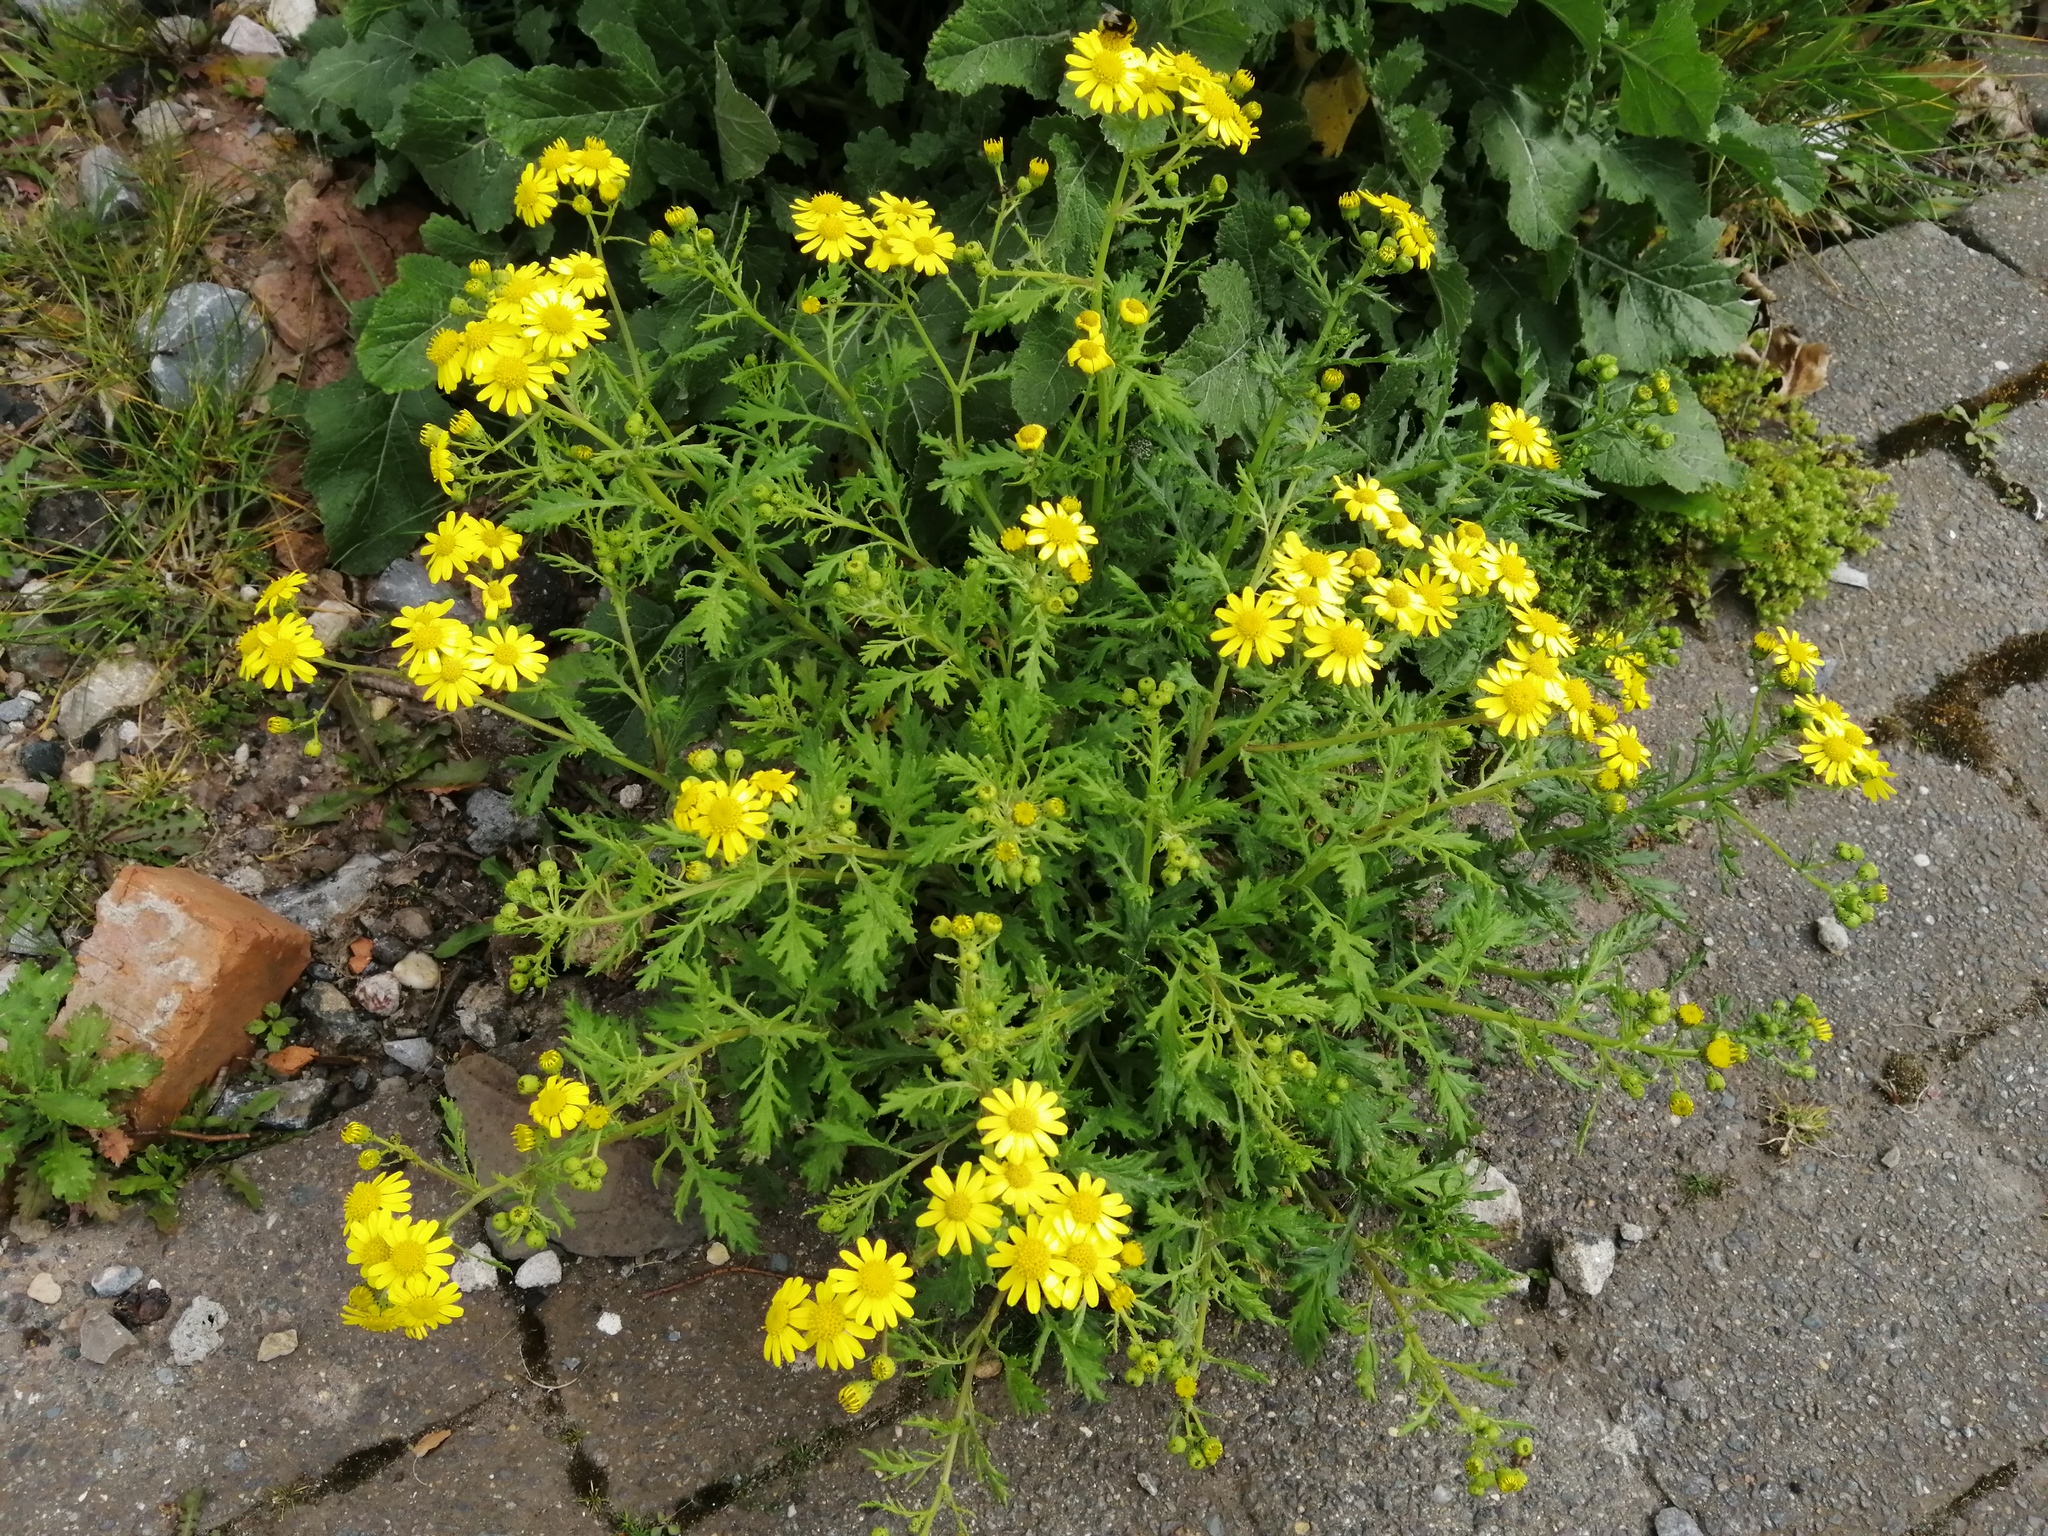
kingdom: Plantae
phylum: Tracheophyta
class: Magnoliopsida
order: Asterales
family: Asteraceae
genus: Senecio
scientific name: Senecio squalidus
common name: Oxford ragwort
